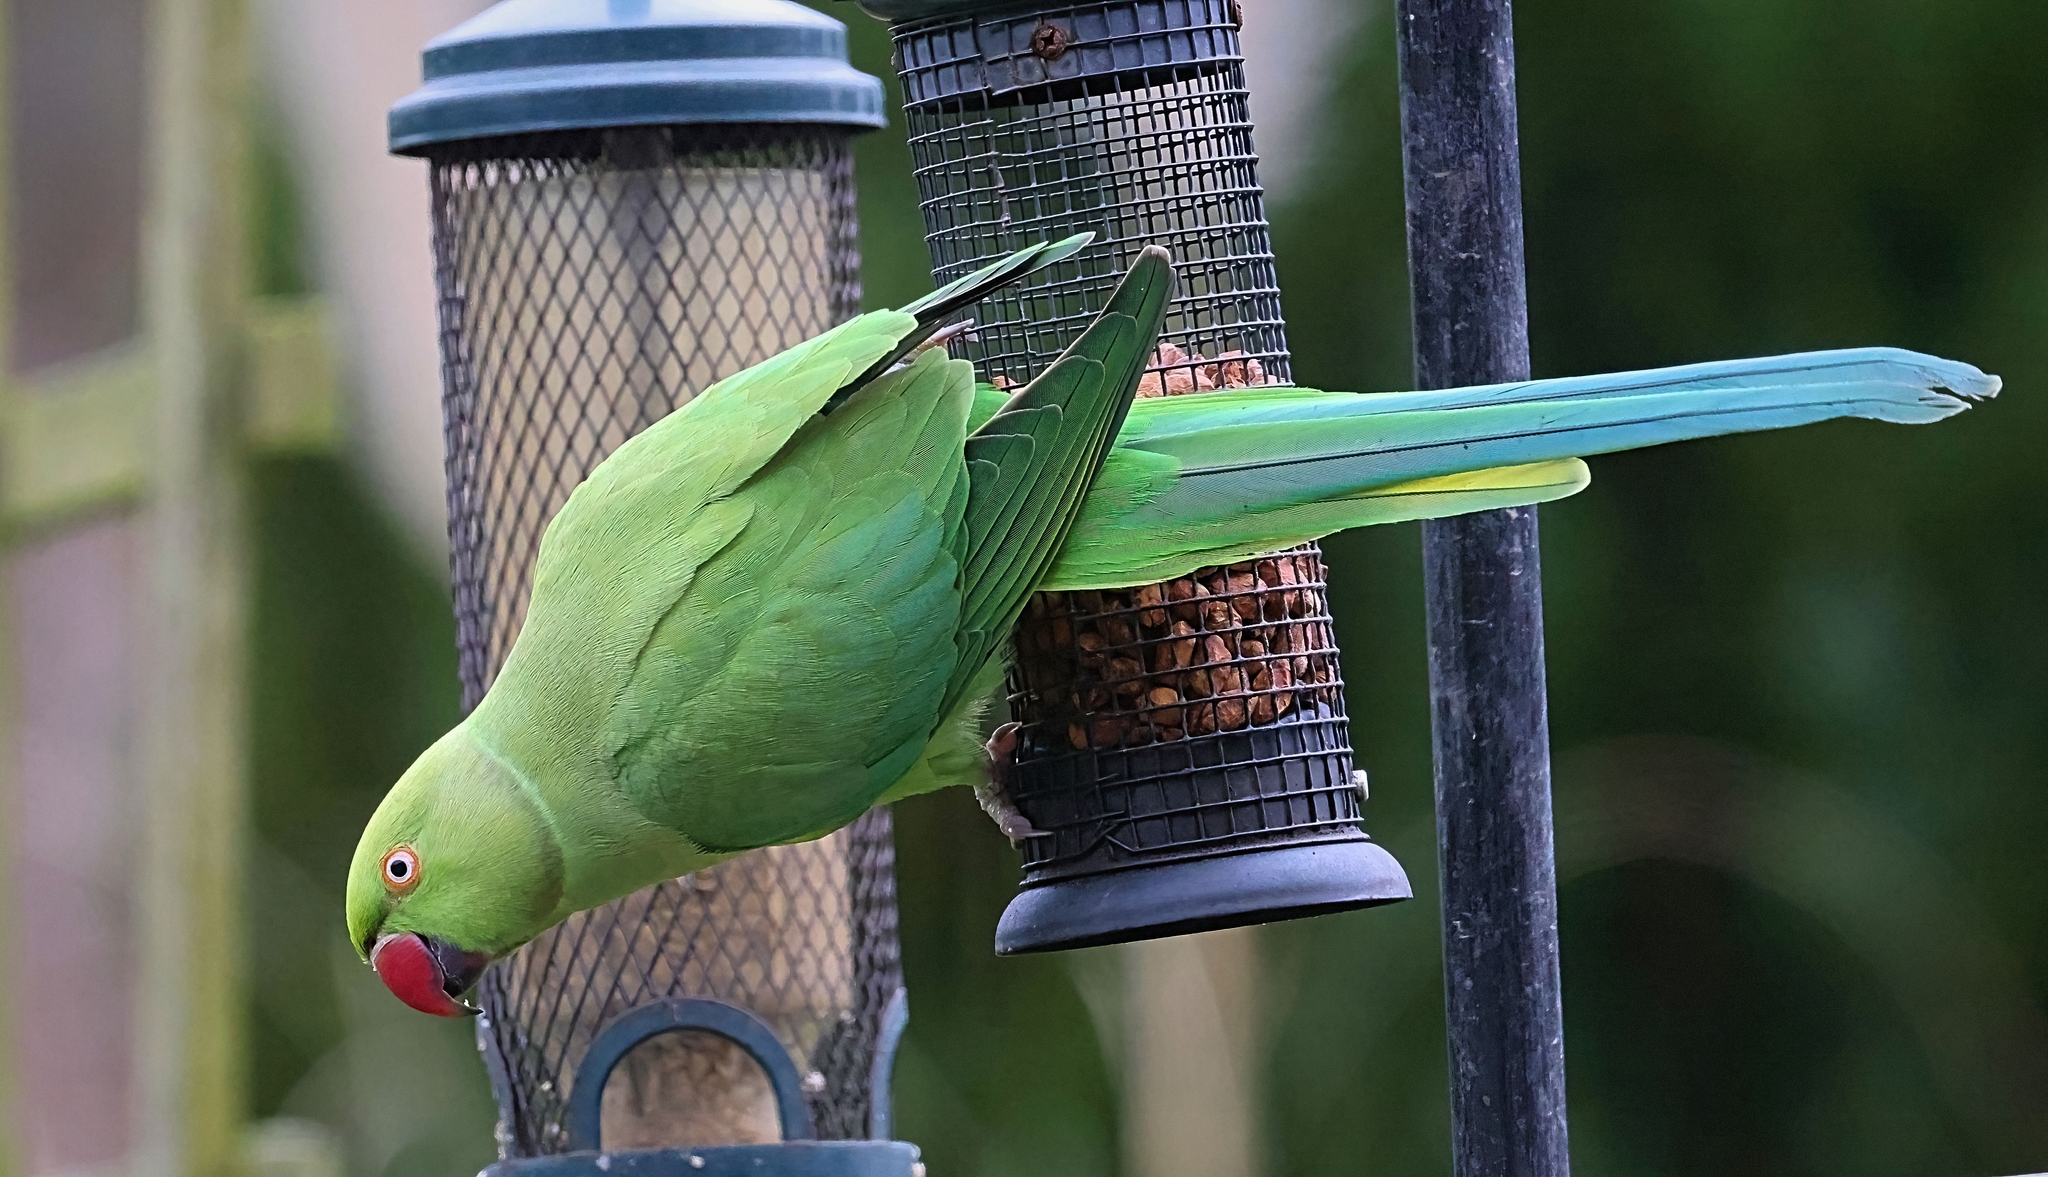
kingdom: Animalia
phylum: Chordata
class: Aves
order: Psittaciformes
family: Psittacidae
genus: Psittacula
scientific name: Psittacula krameri
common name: Rose-ringed parakeet
